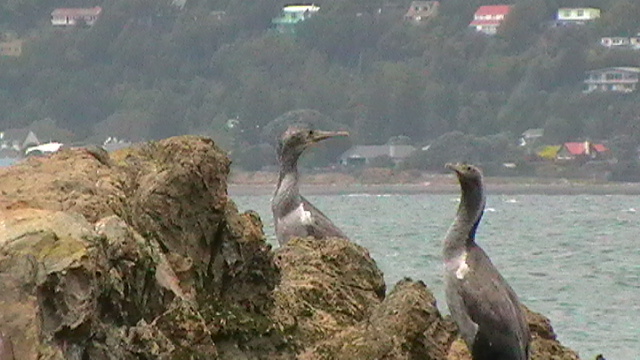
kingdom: Animalia
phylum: Chordata
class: Aves
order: Suliformes
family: Phalacrocoracidae
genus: Phalacrocorax
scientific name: Phalacrocorax punctatus
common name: Spotted shag
